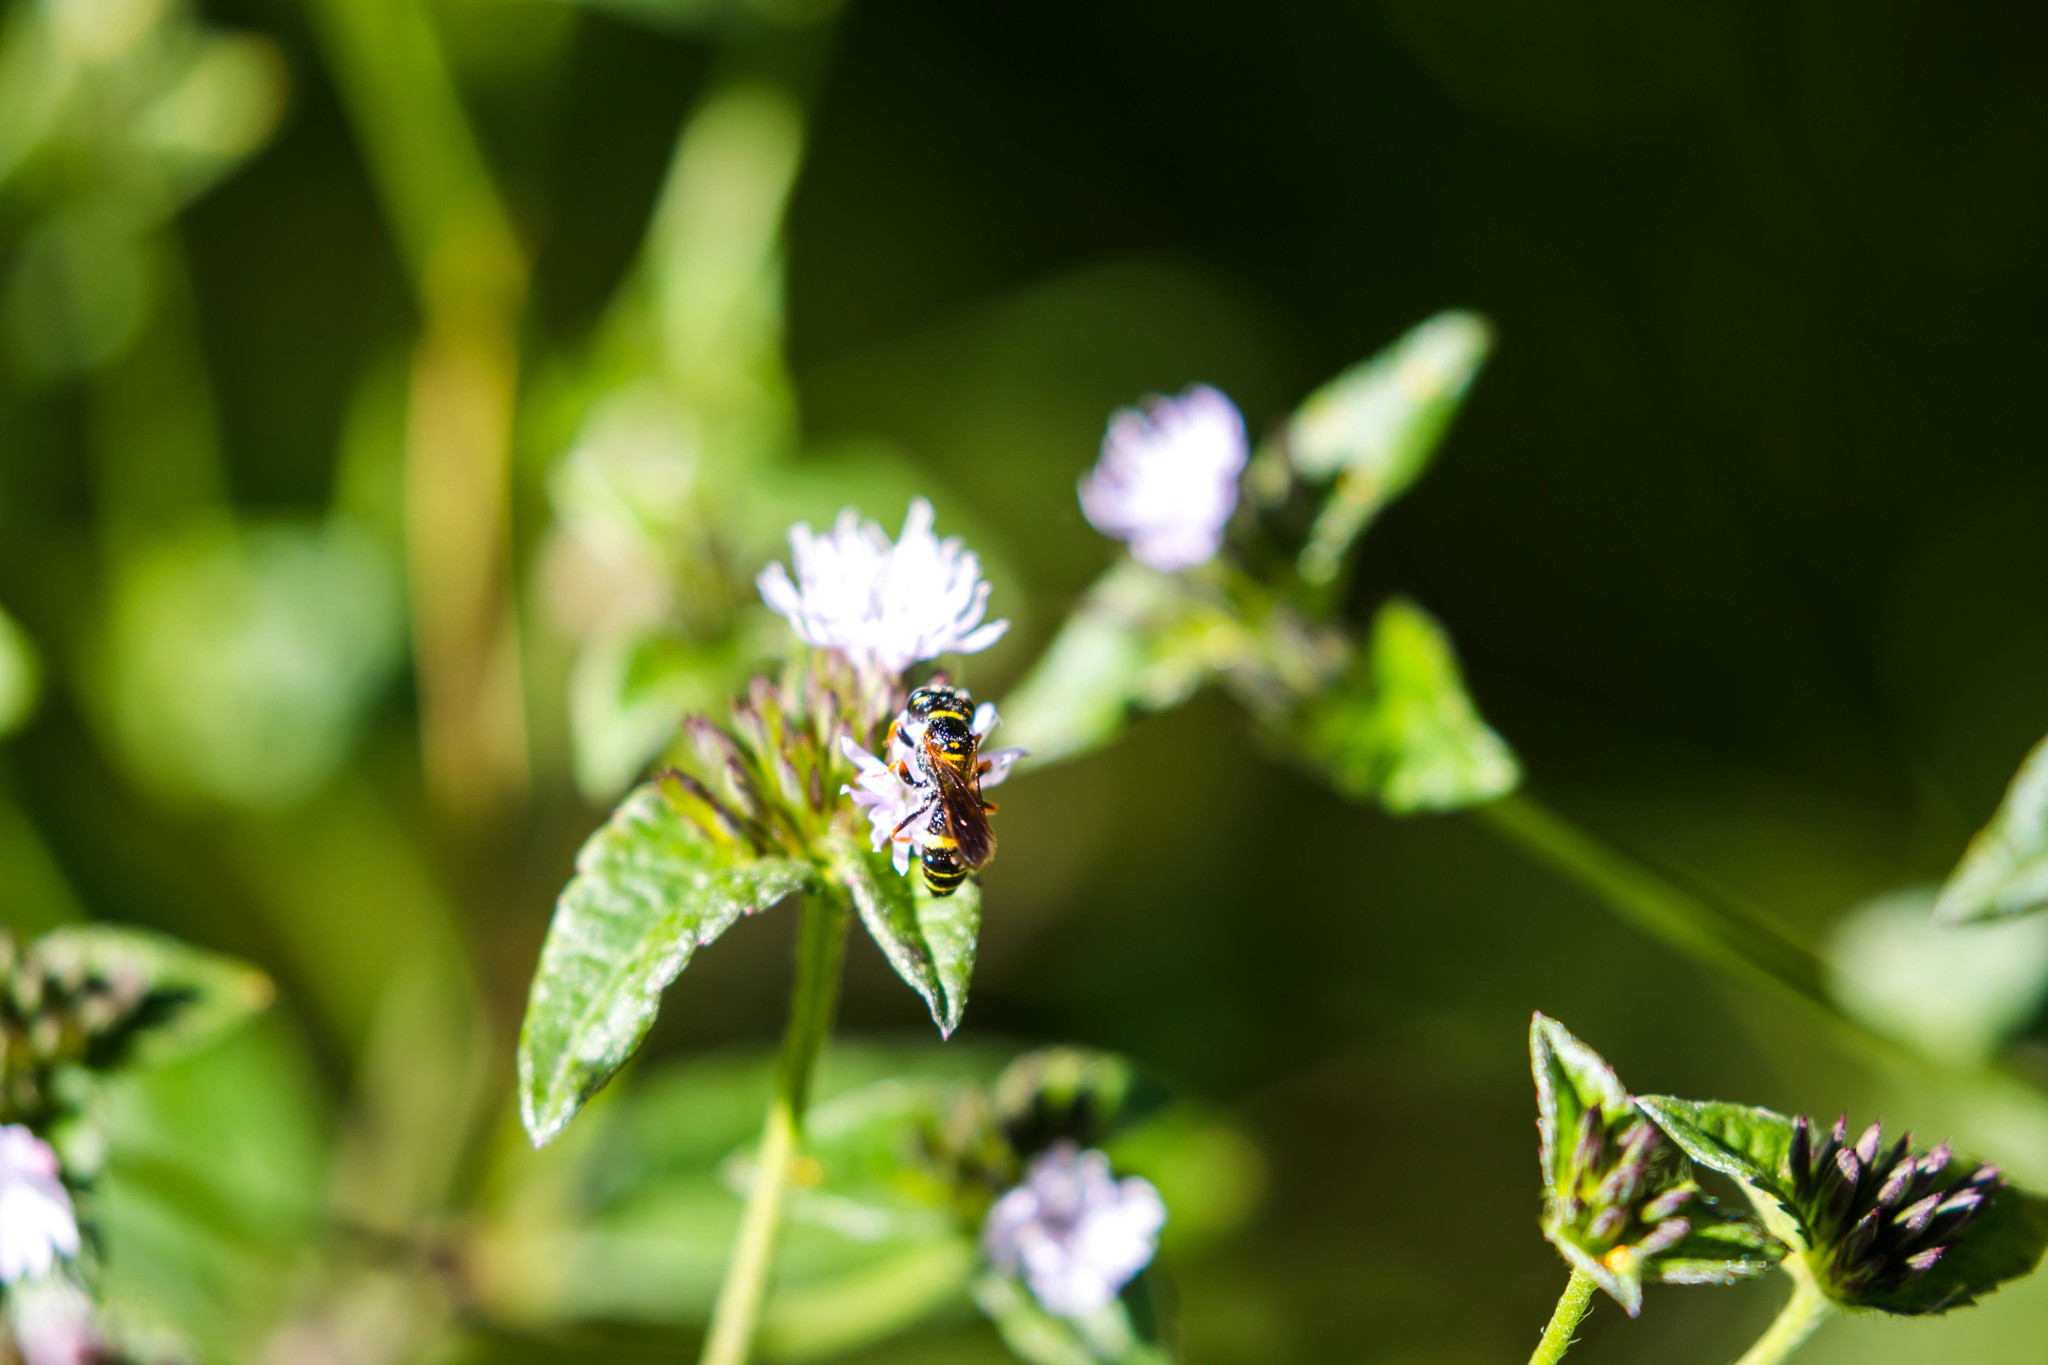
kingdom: Animalia
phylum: Arthropoda
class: Insecta
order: Hymenoptera
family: Crabronidae
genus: Philanthus
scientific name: Philanthus gibbosus
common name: Humped beewolf
